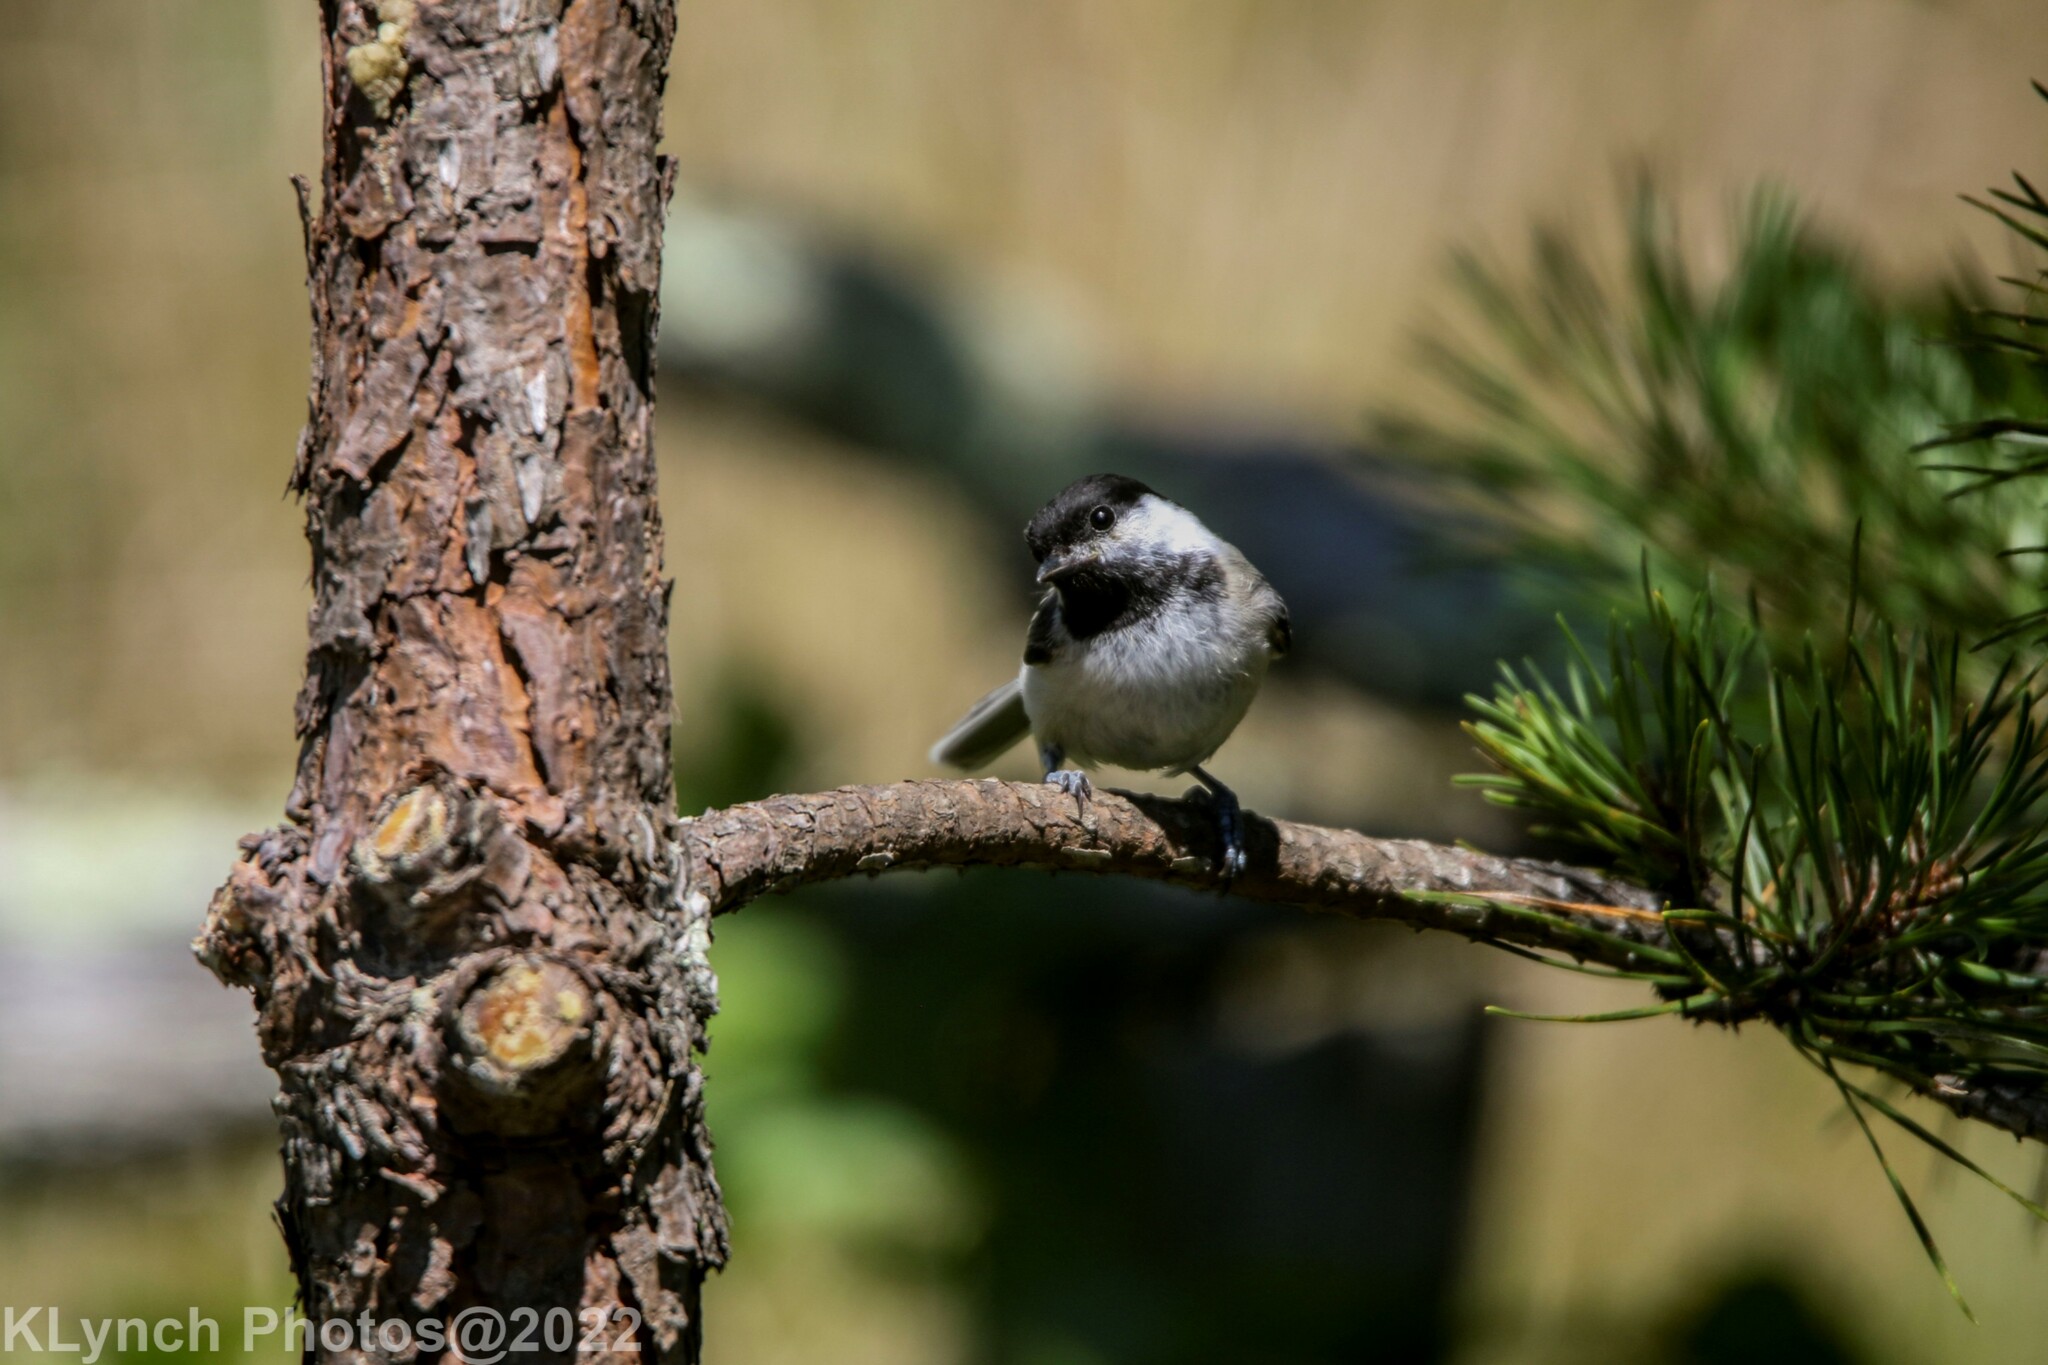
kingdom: Animalia
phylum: Chordata
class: Aves
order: Passeriformes
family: Paridae
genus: Poecile
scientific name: Poecile atricapillus
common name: Black-capped chickadee
